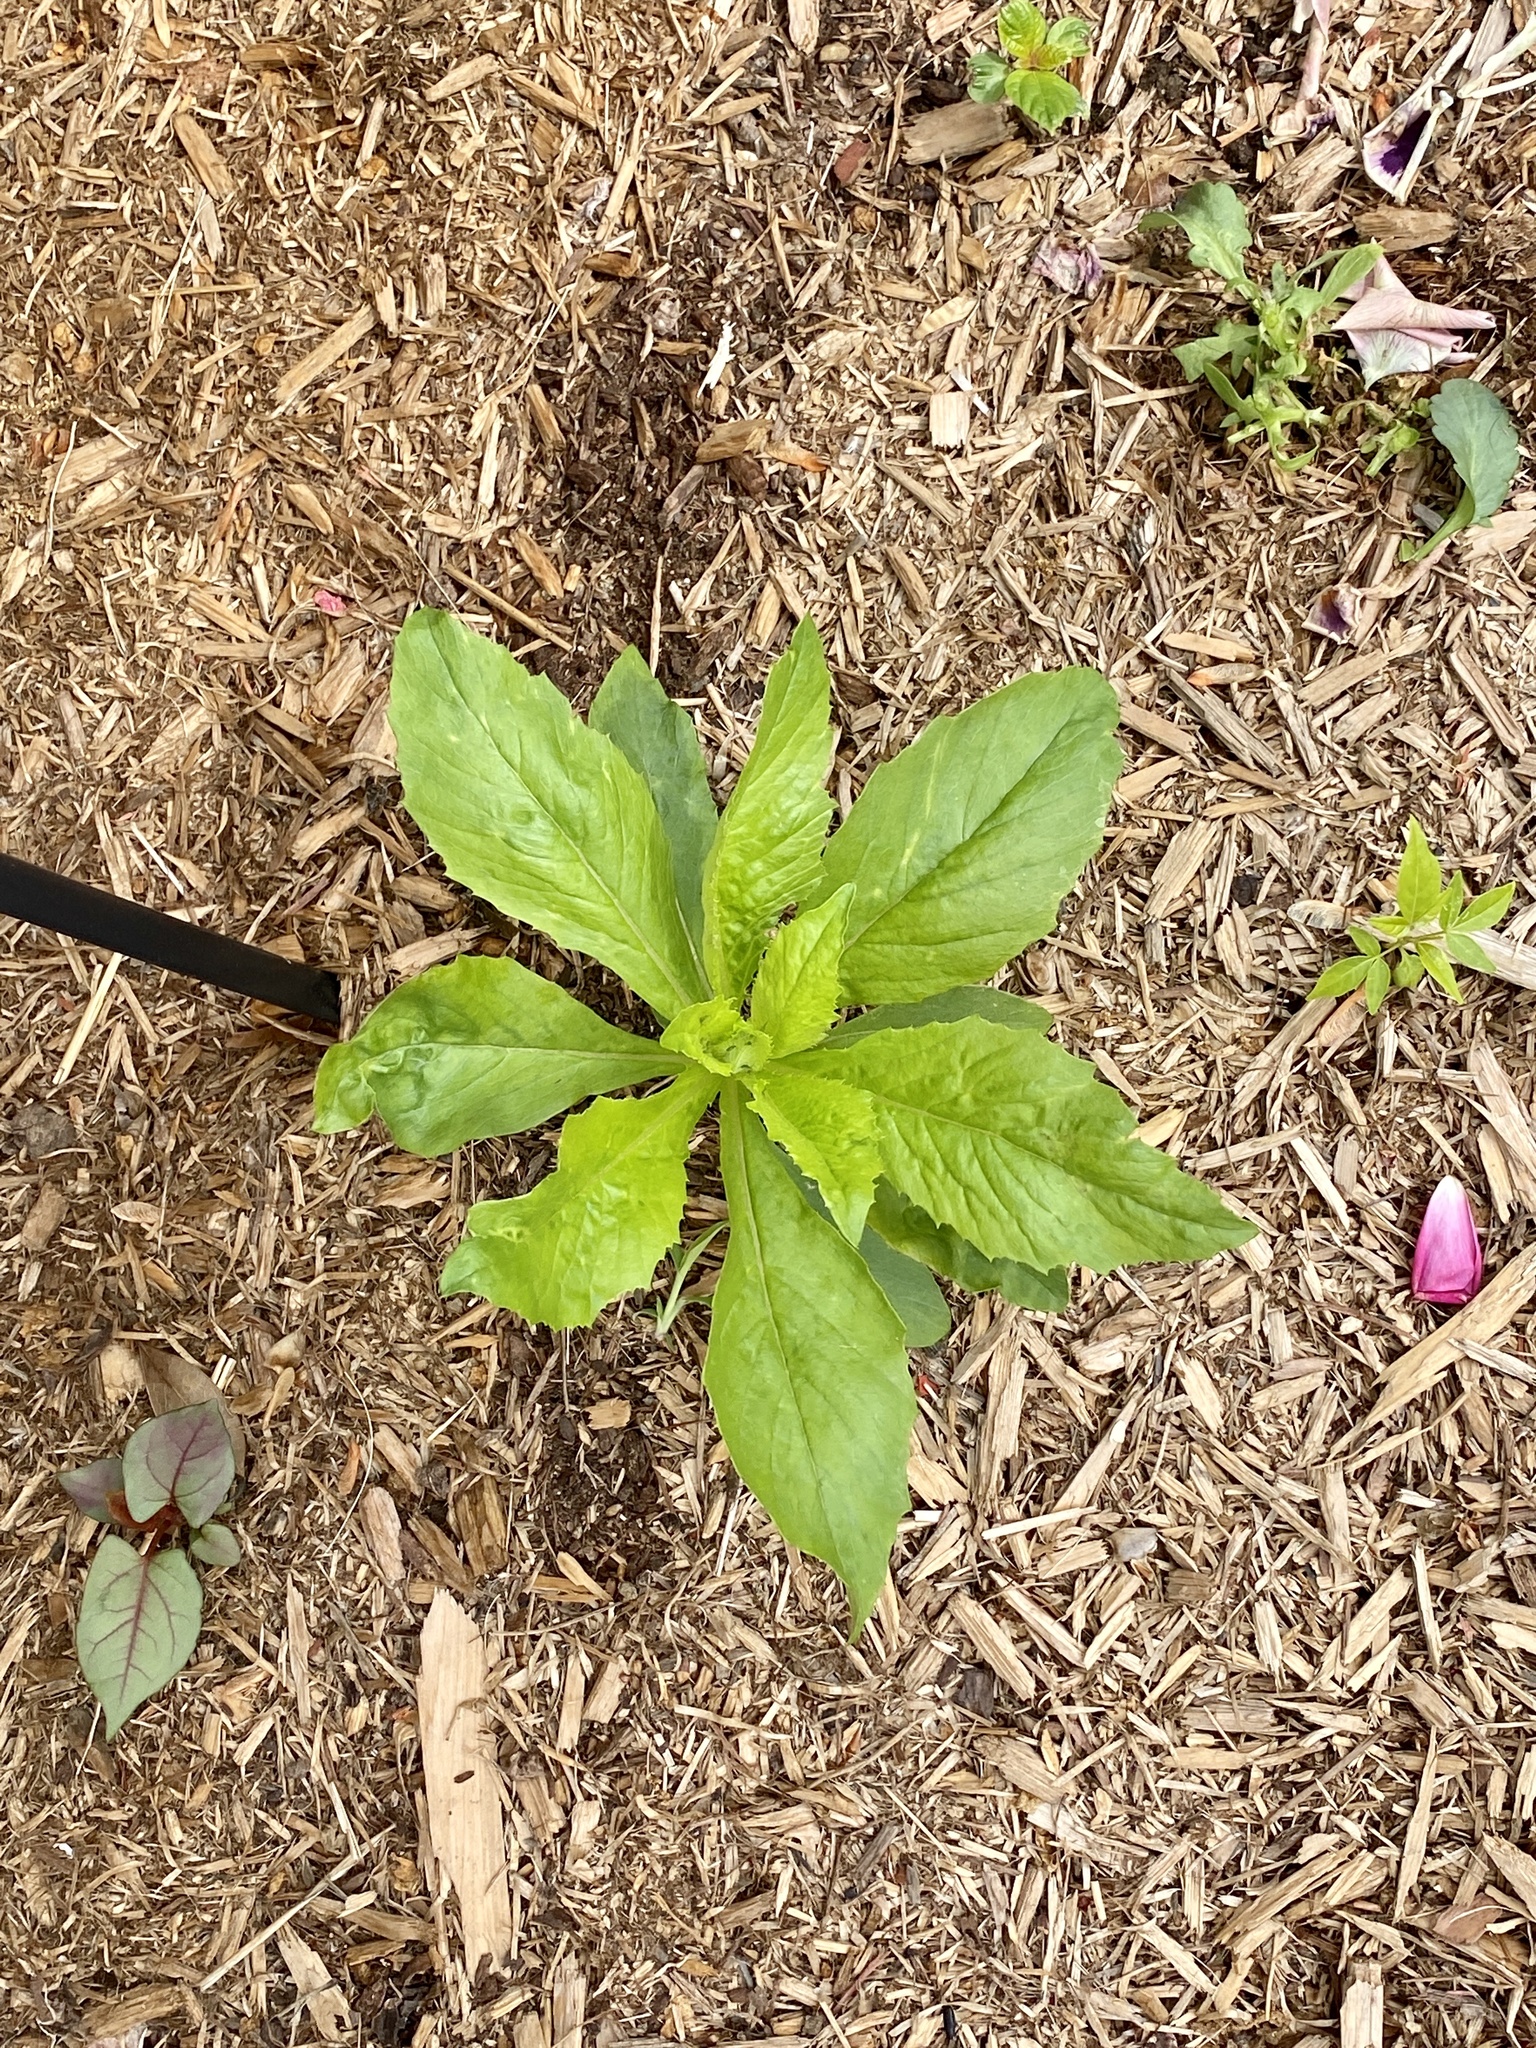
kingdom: Plantae
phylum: Tracheophyta
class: Magnoliopsida
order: Asterales
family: Asteraceae
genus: Erechtites
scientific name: Erechtites hieraciifolius
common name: American burnweed
